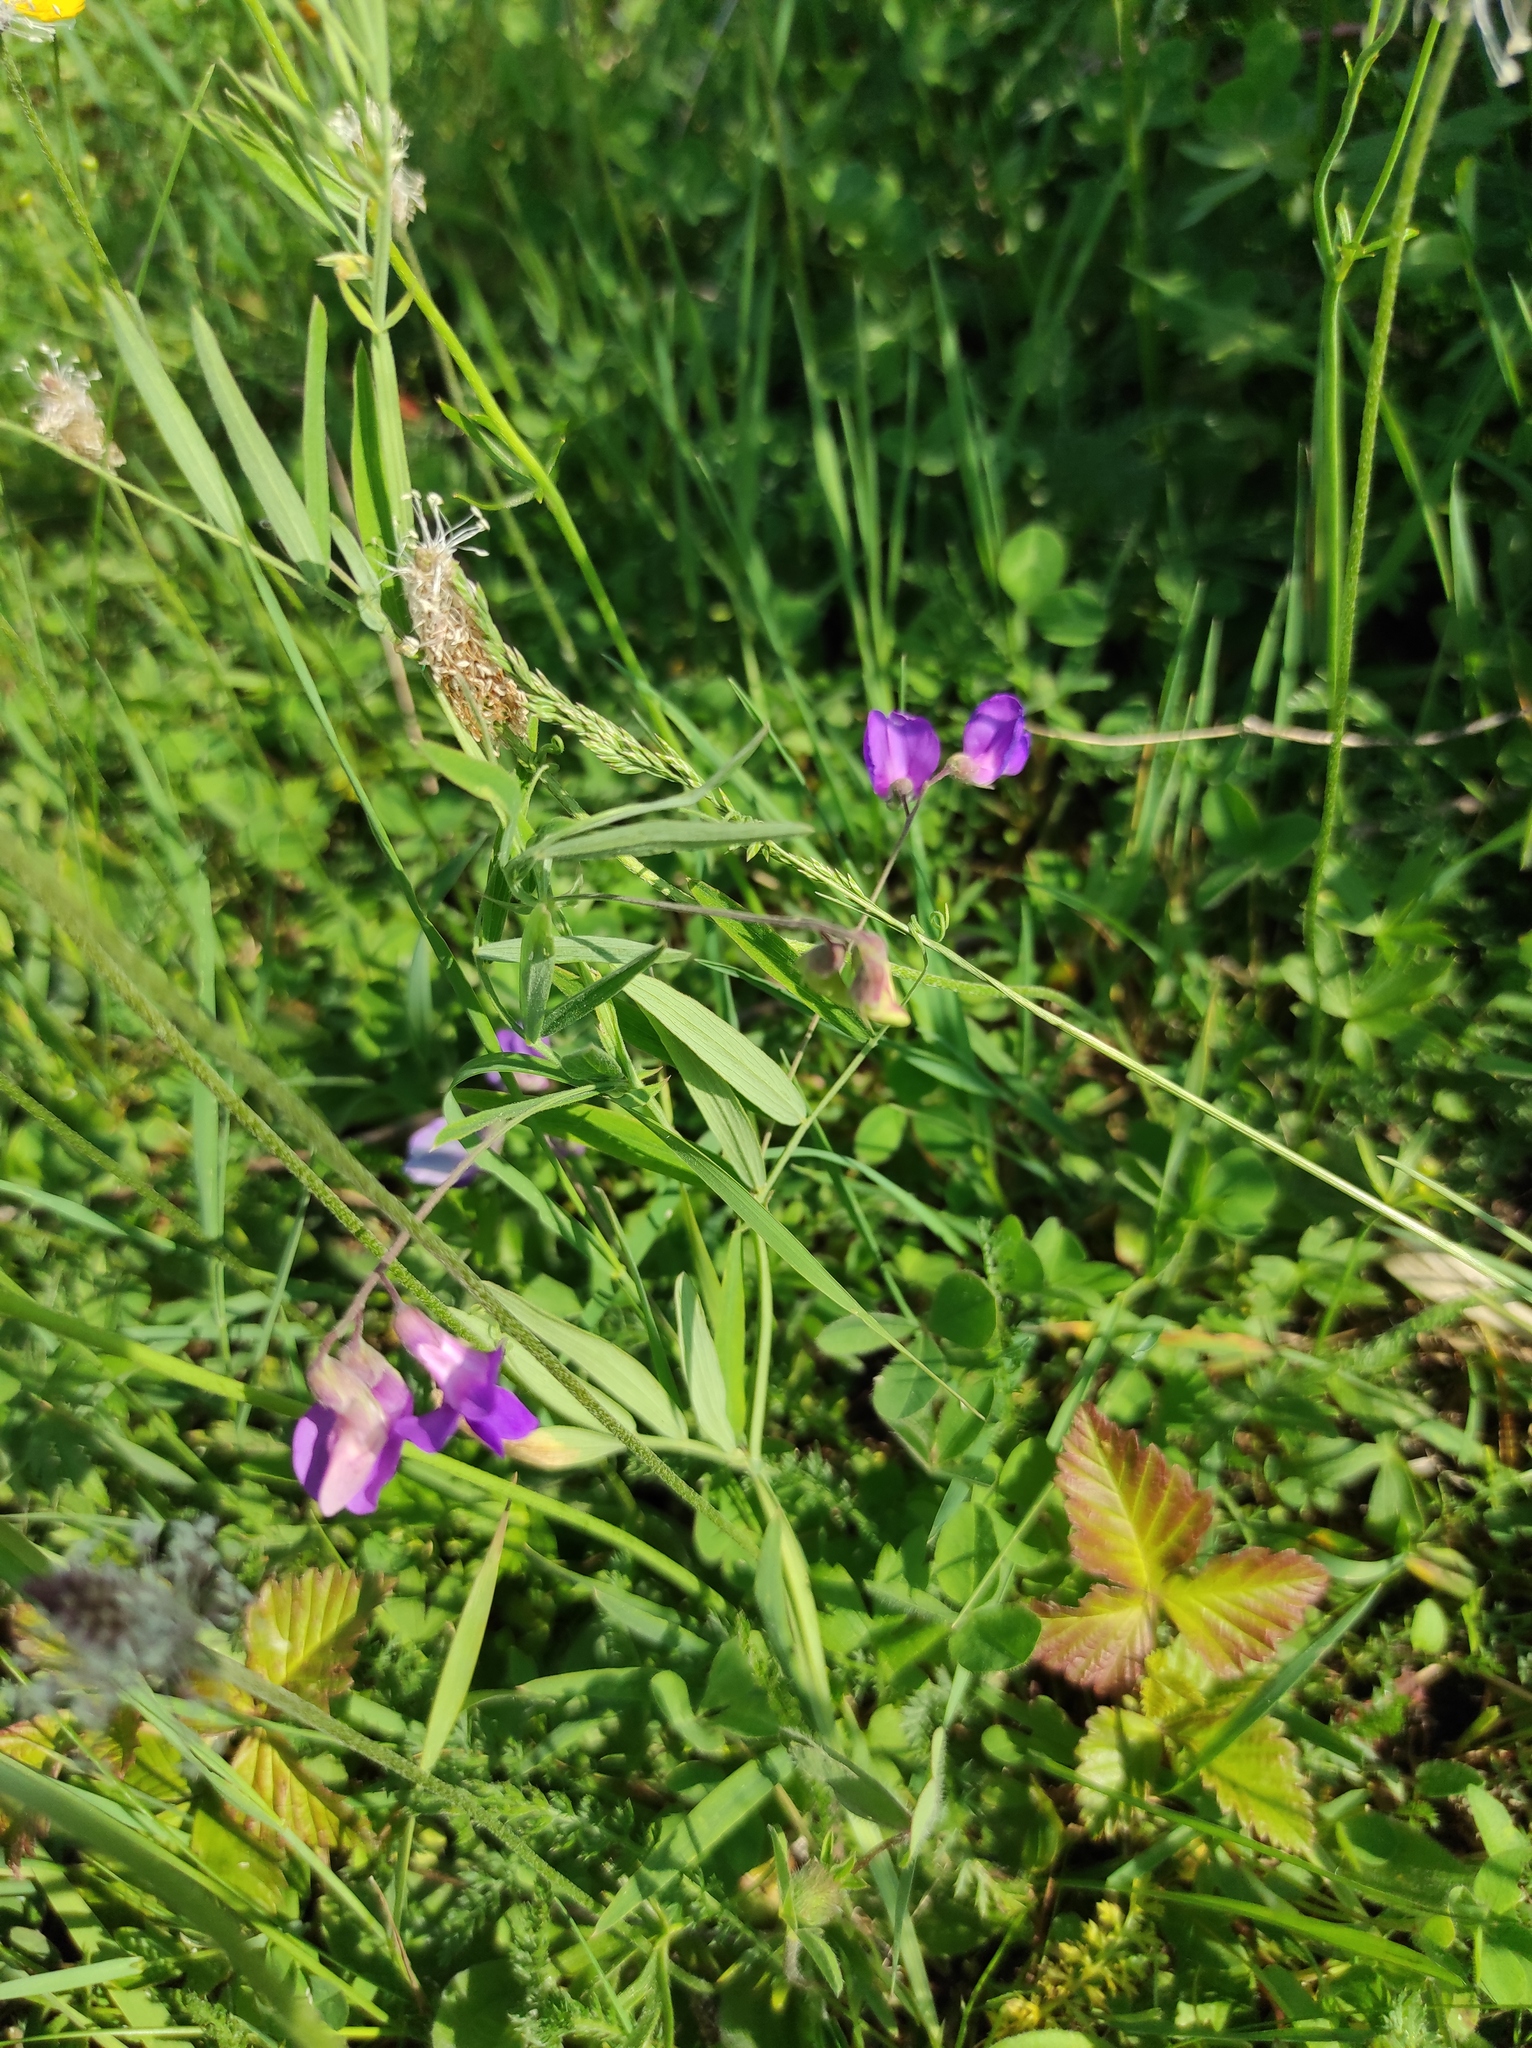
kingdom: Plantae
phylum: Tracheophyta
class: Magnoliopsida
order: Fabales
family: Fabaceae
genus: Lathyrus
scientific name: Lathyrus palustris
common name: Marsh pea
